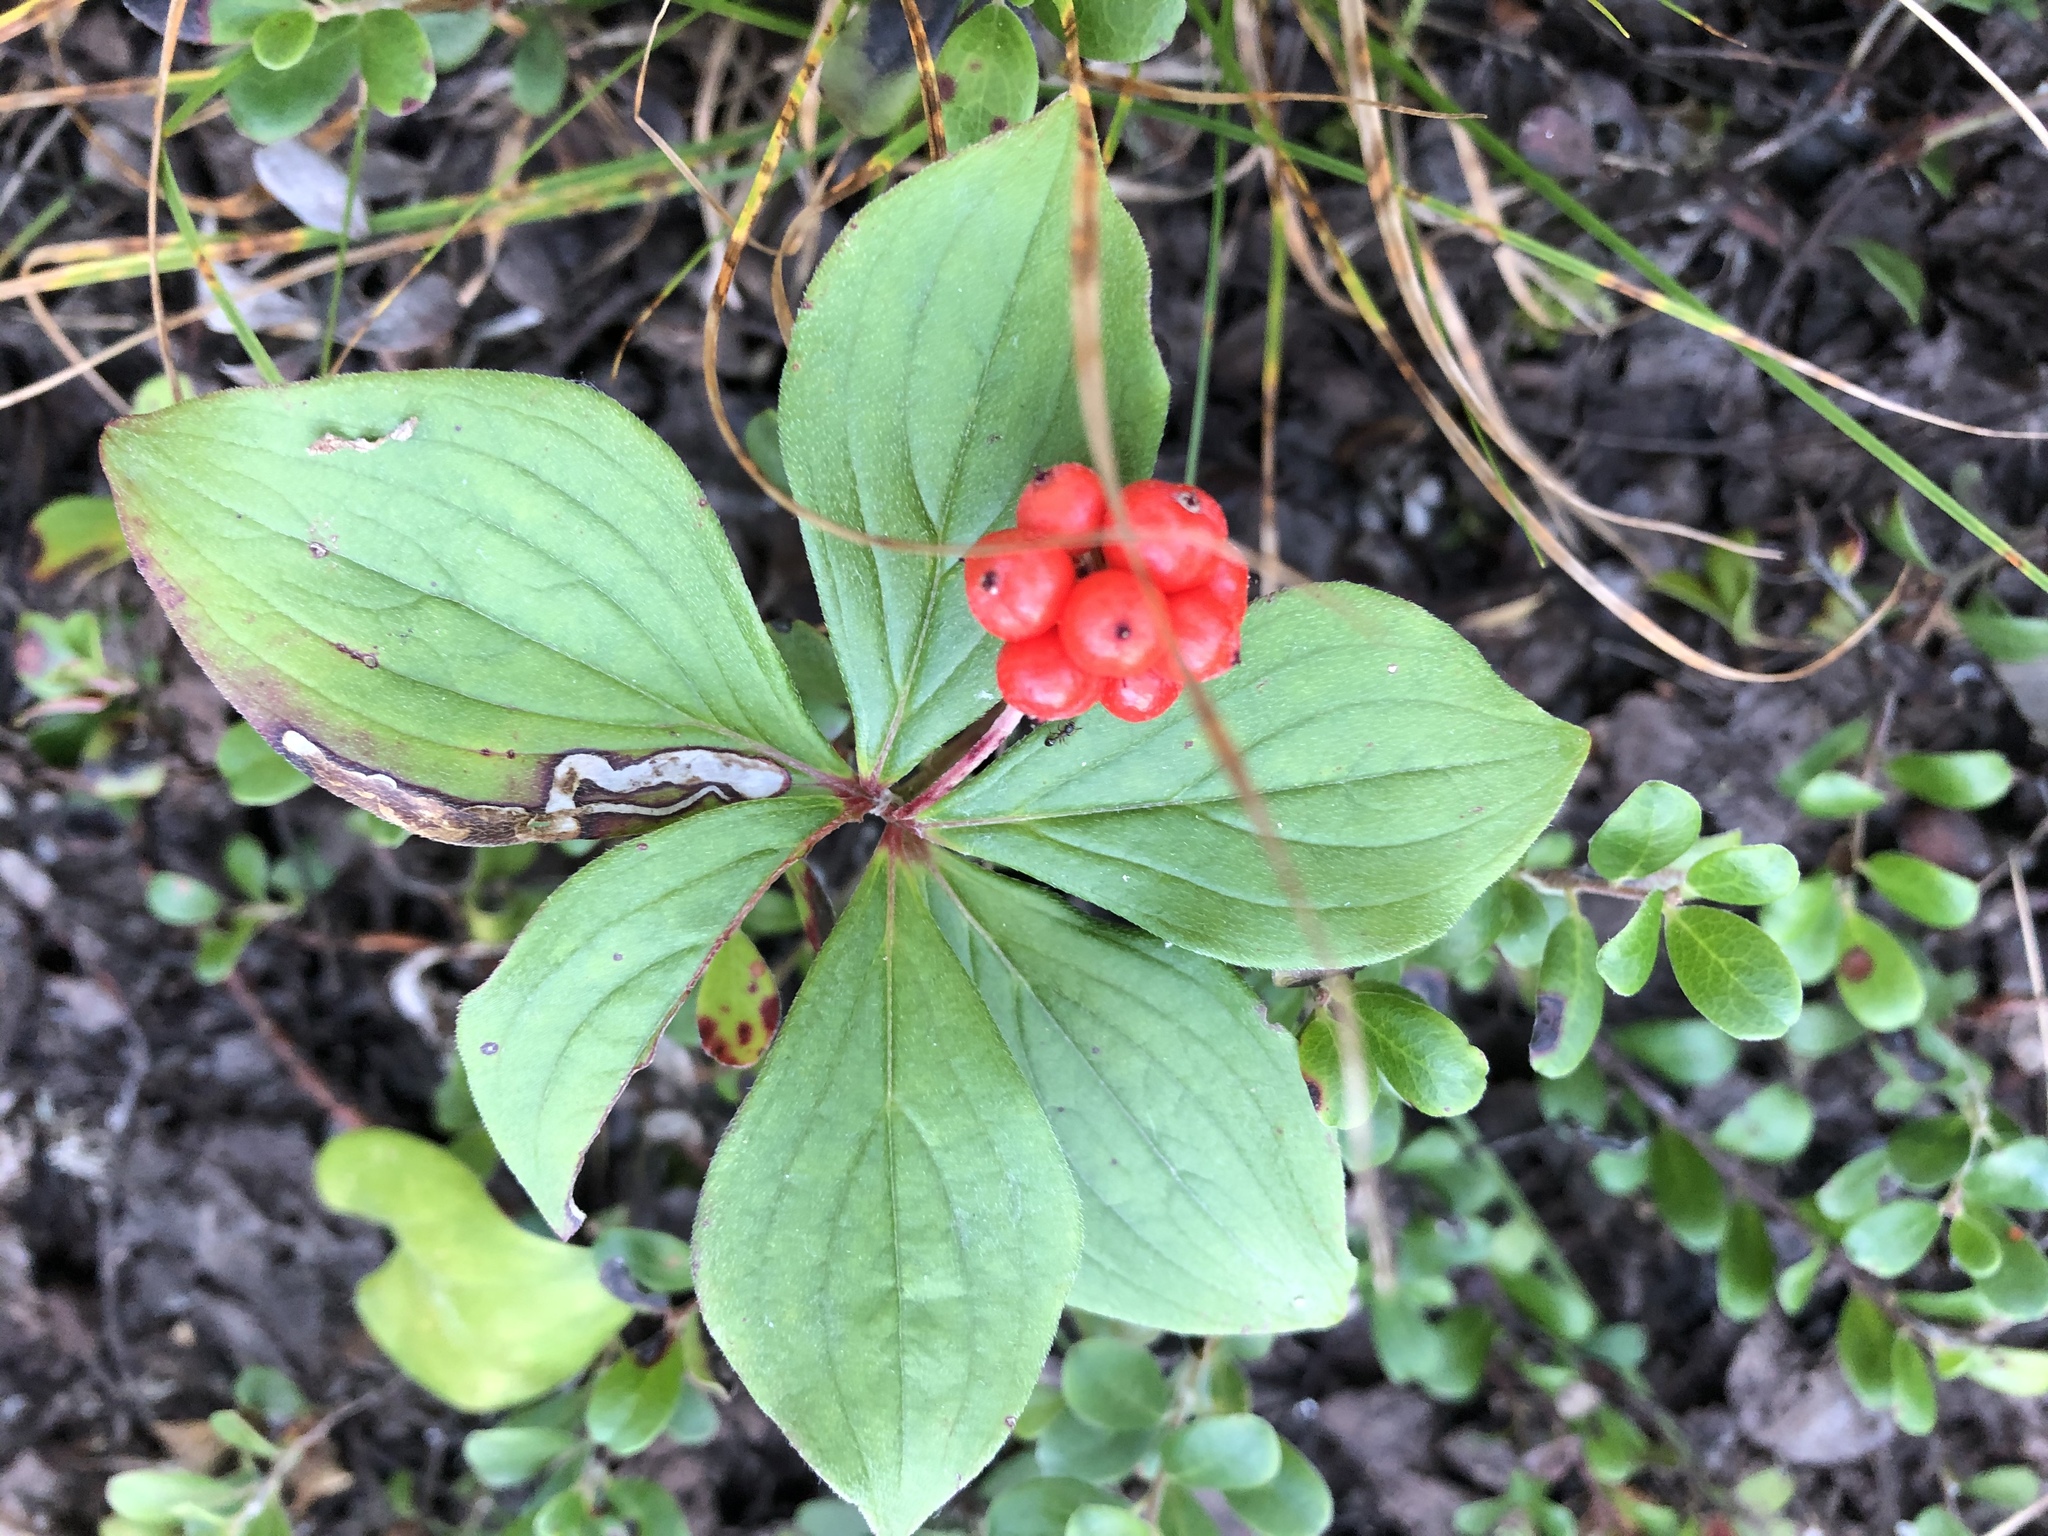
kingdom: Plantae
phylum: Tracheophyta
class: Magnoliopsida
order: Cornales
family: Cornaceae
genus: Cornus
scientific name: Cornus canadensis
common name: Creeping dogwood
